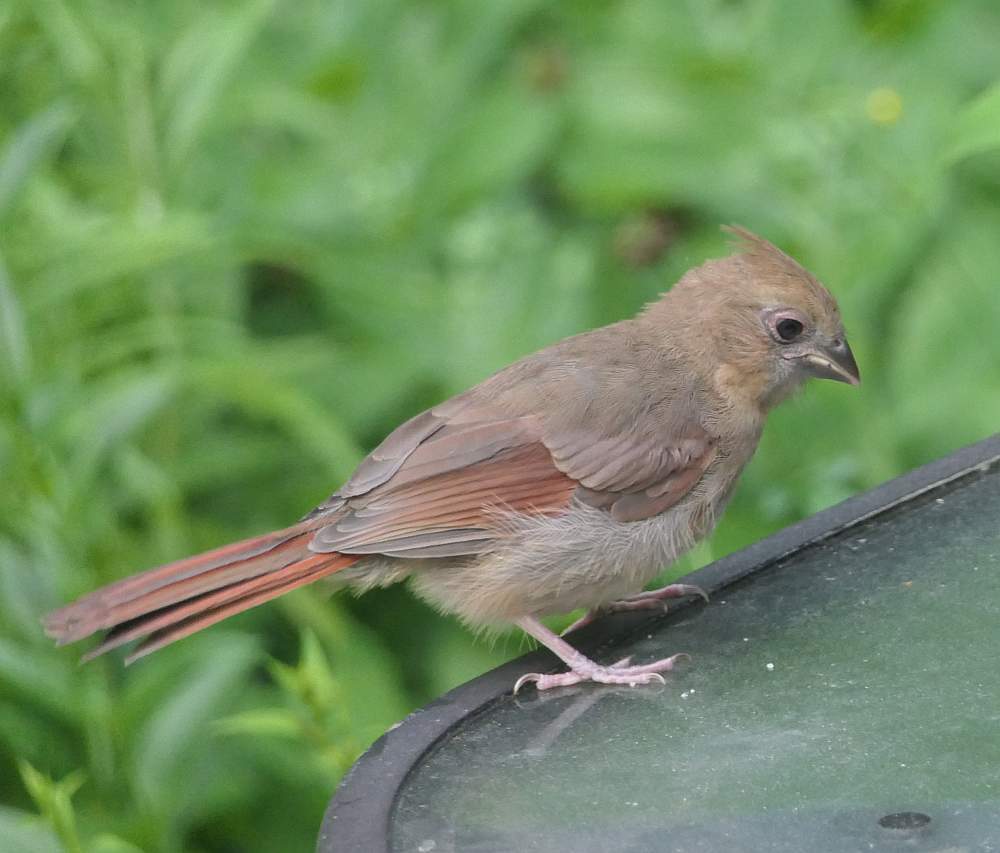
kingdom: Animalia
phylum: Chordata
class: Aves
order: Passeriformes
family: Cardinalidae
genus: Cardinalis
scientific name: Cardinalis cardinalis
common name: Northern cardinal
